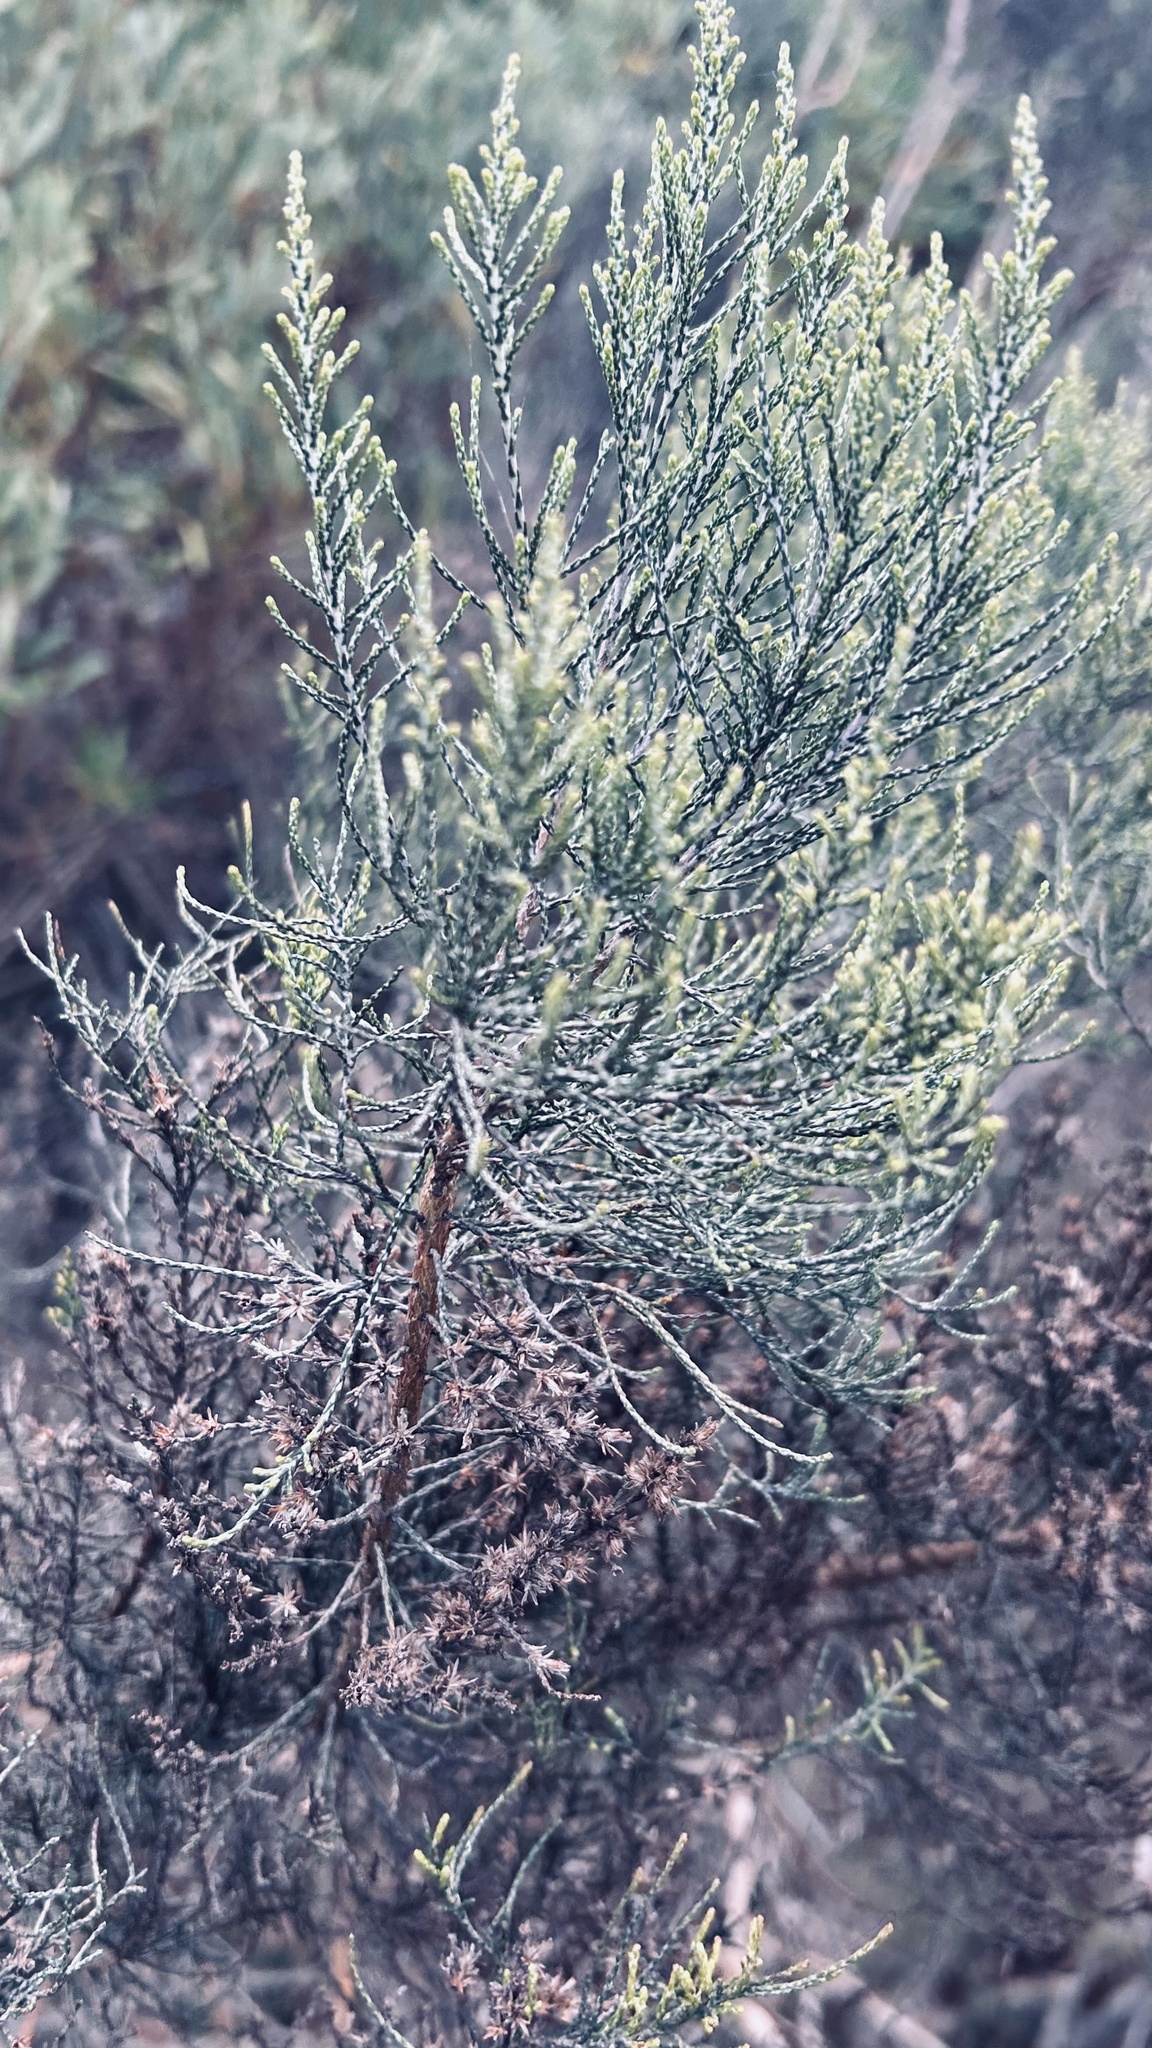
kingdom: Plantae
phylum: Tracheophyta
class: Magnoliopsida
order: Asterales
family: Asteraceae
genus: Dicerothamnus
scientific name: Dicerothamnus rhinocerotis
